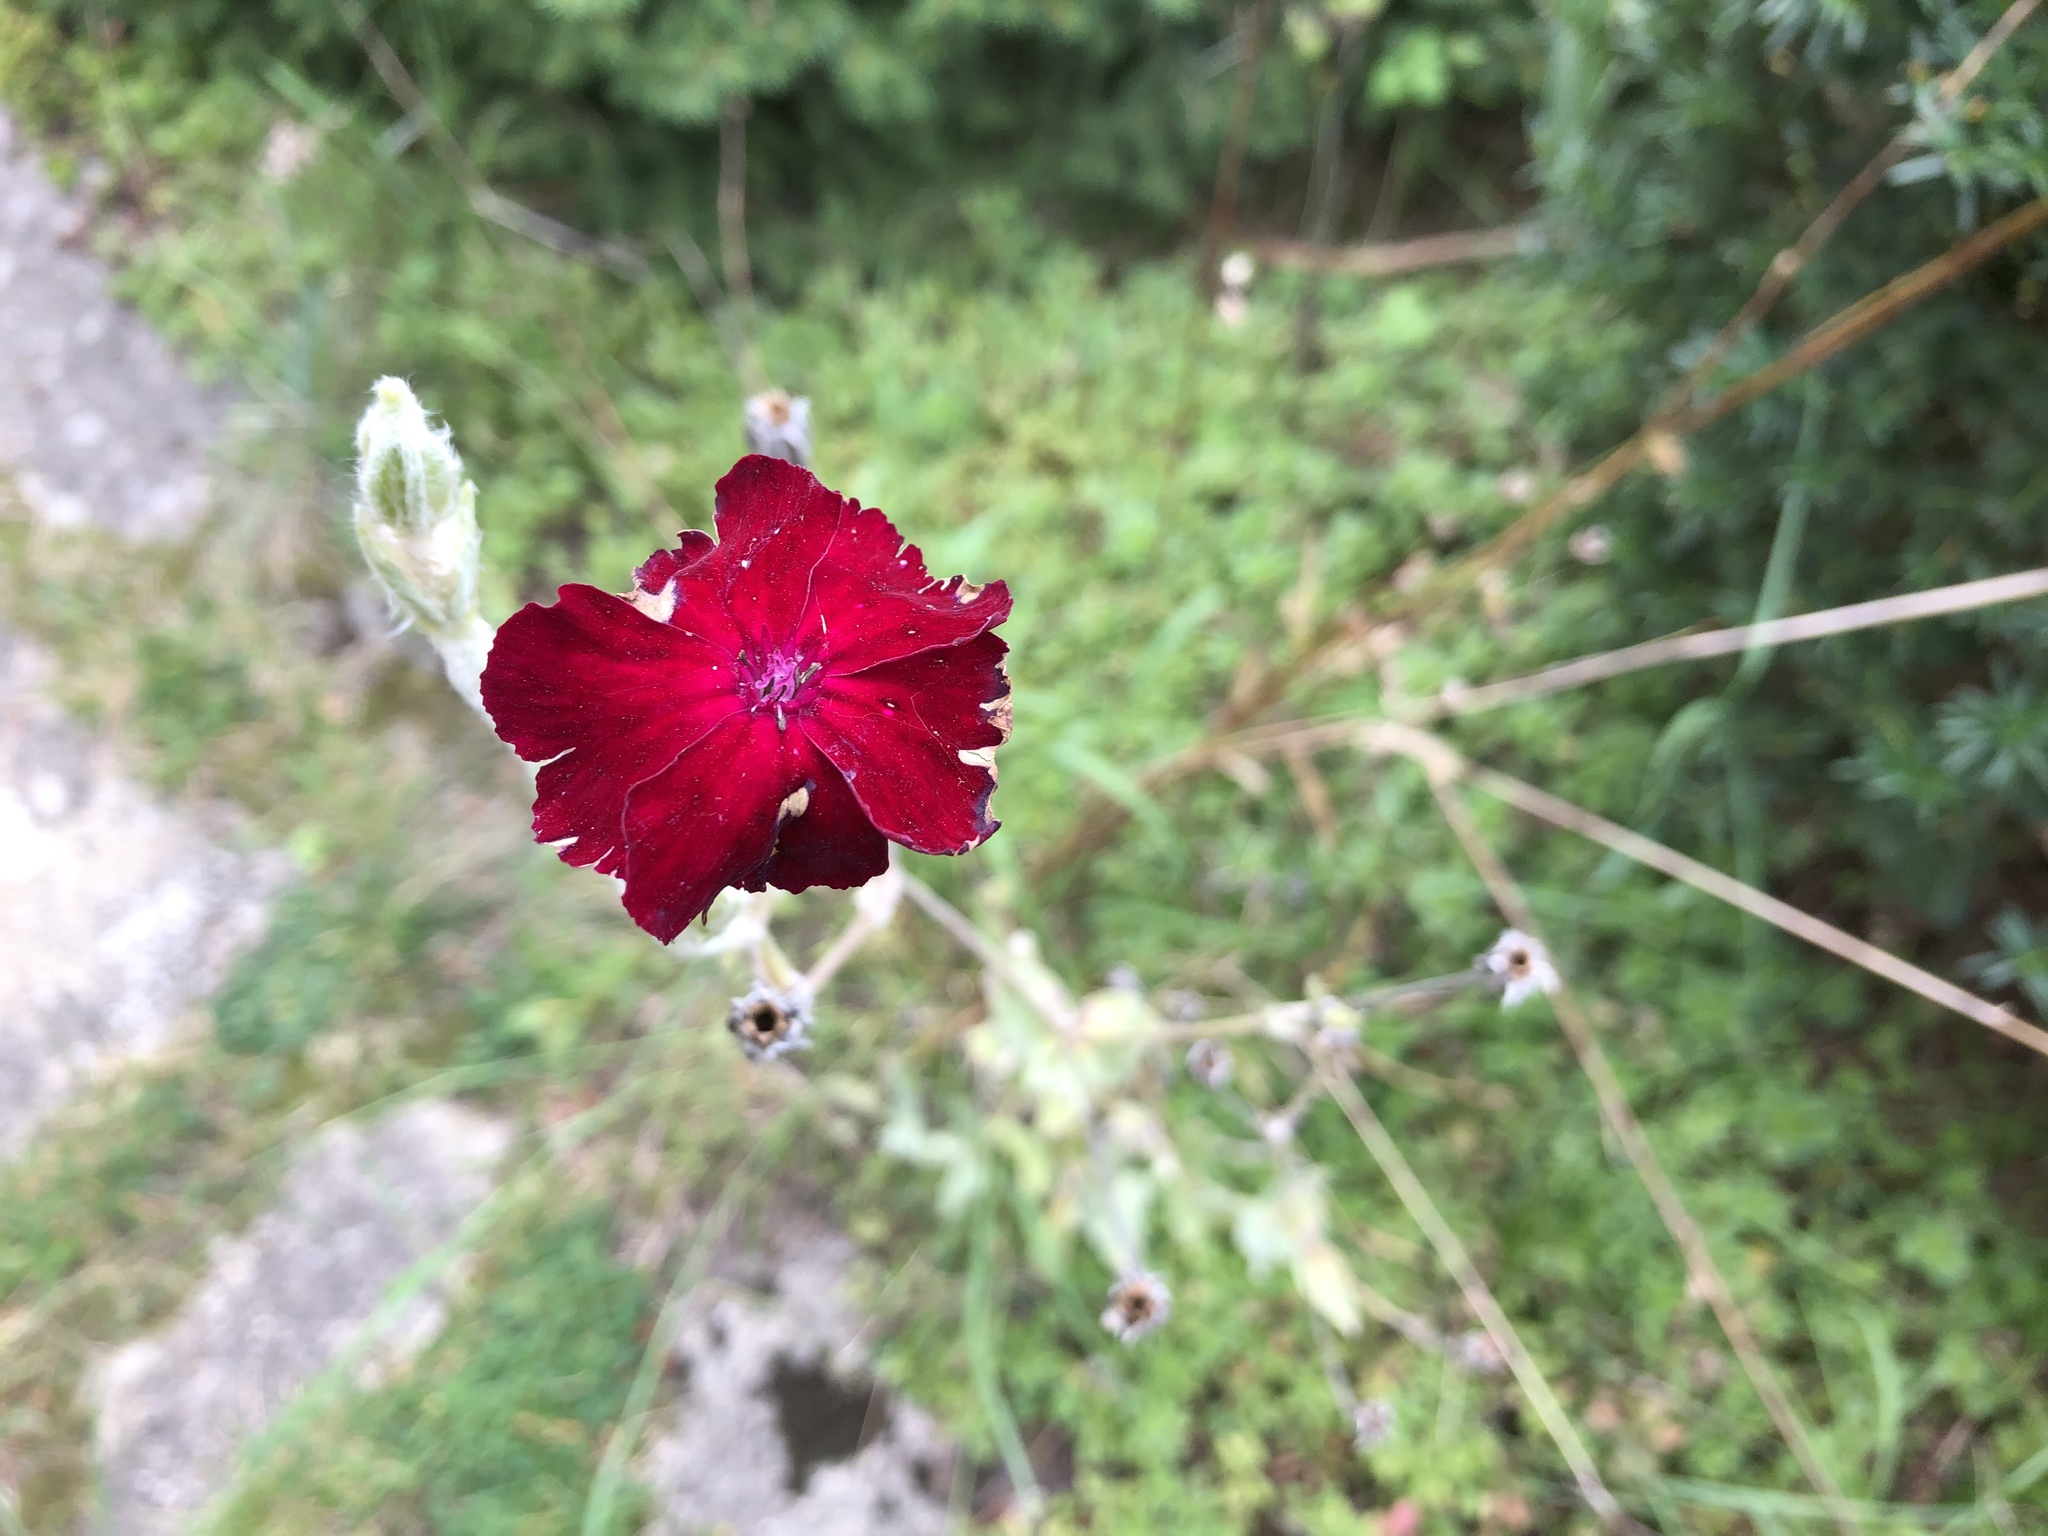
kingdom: Plantae
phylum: Tracheophyta
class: Magnoliopsida
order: Caryophyllales
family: Caryophyllaceae
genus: Silene
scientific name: Silene coronaria
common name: Rose campion
